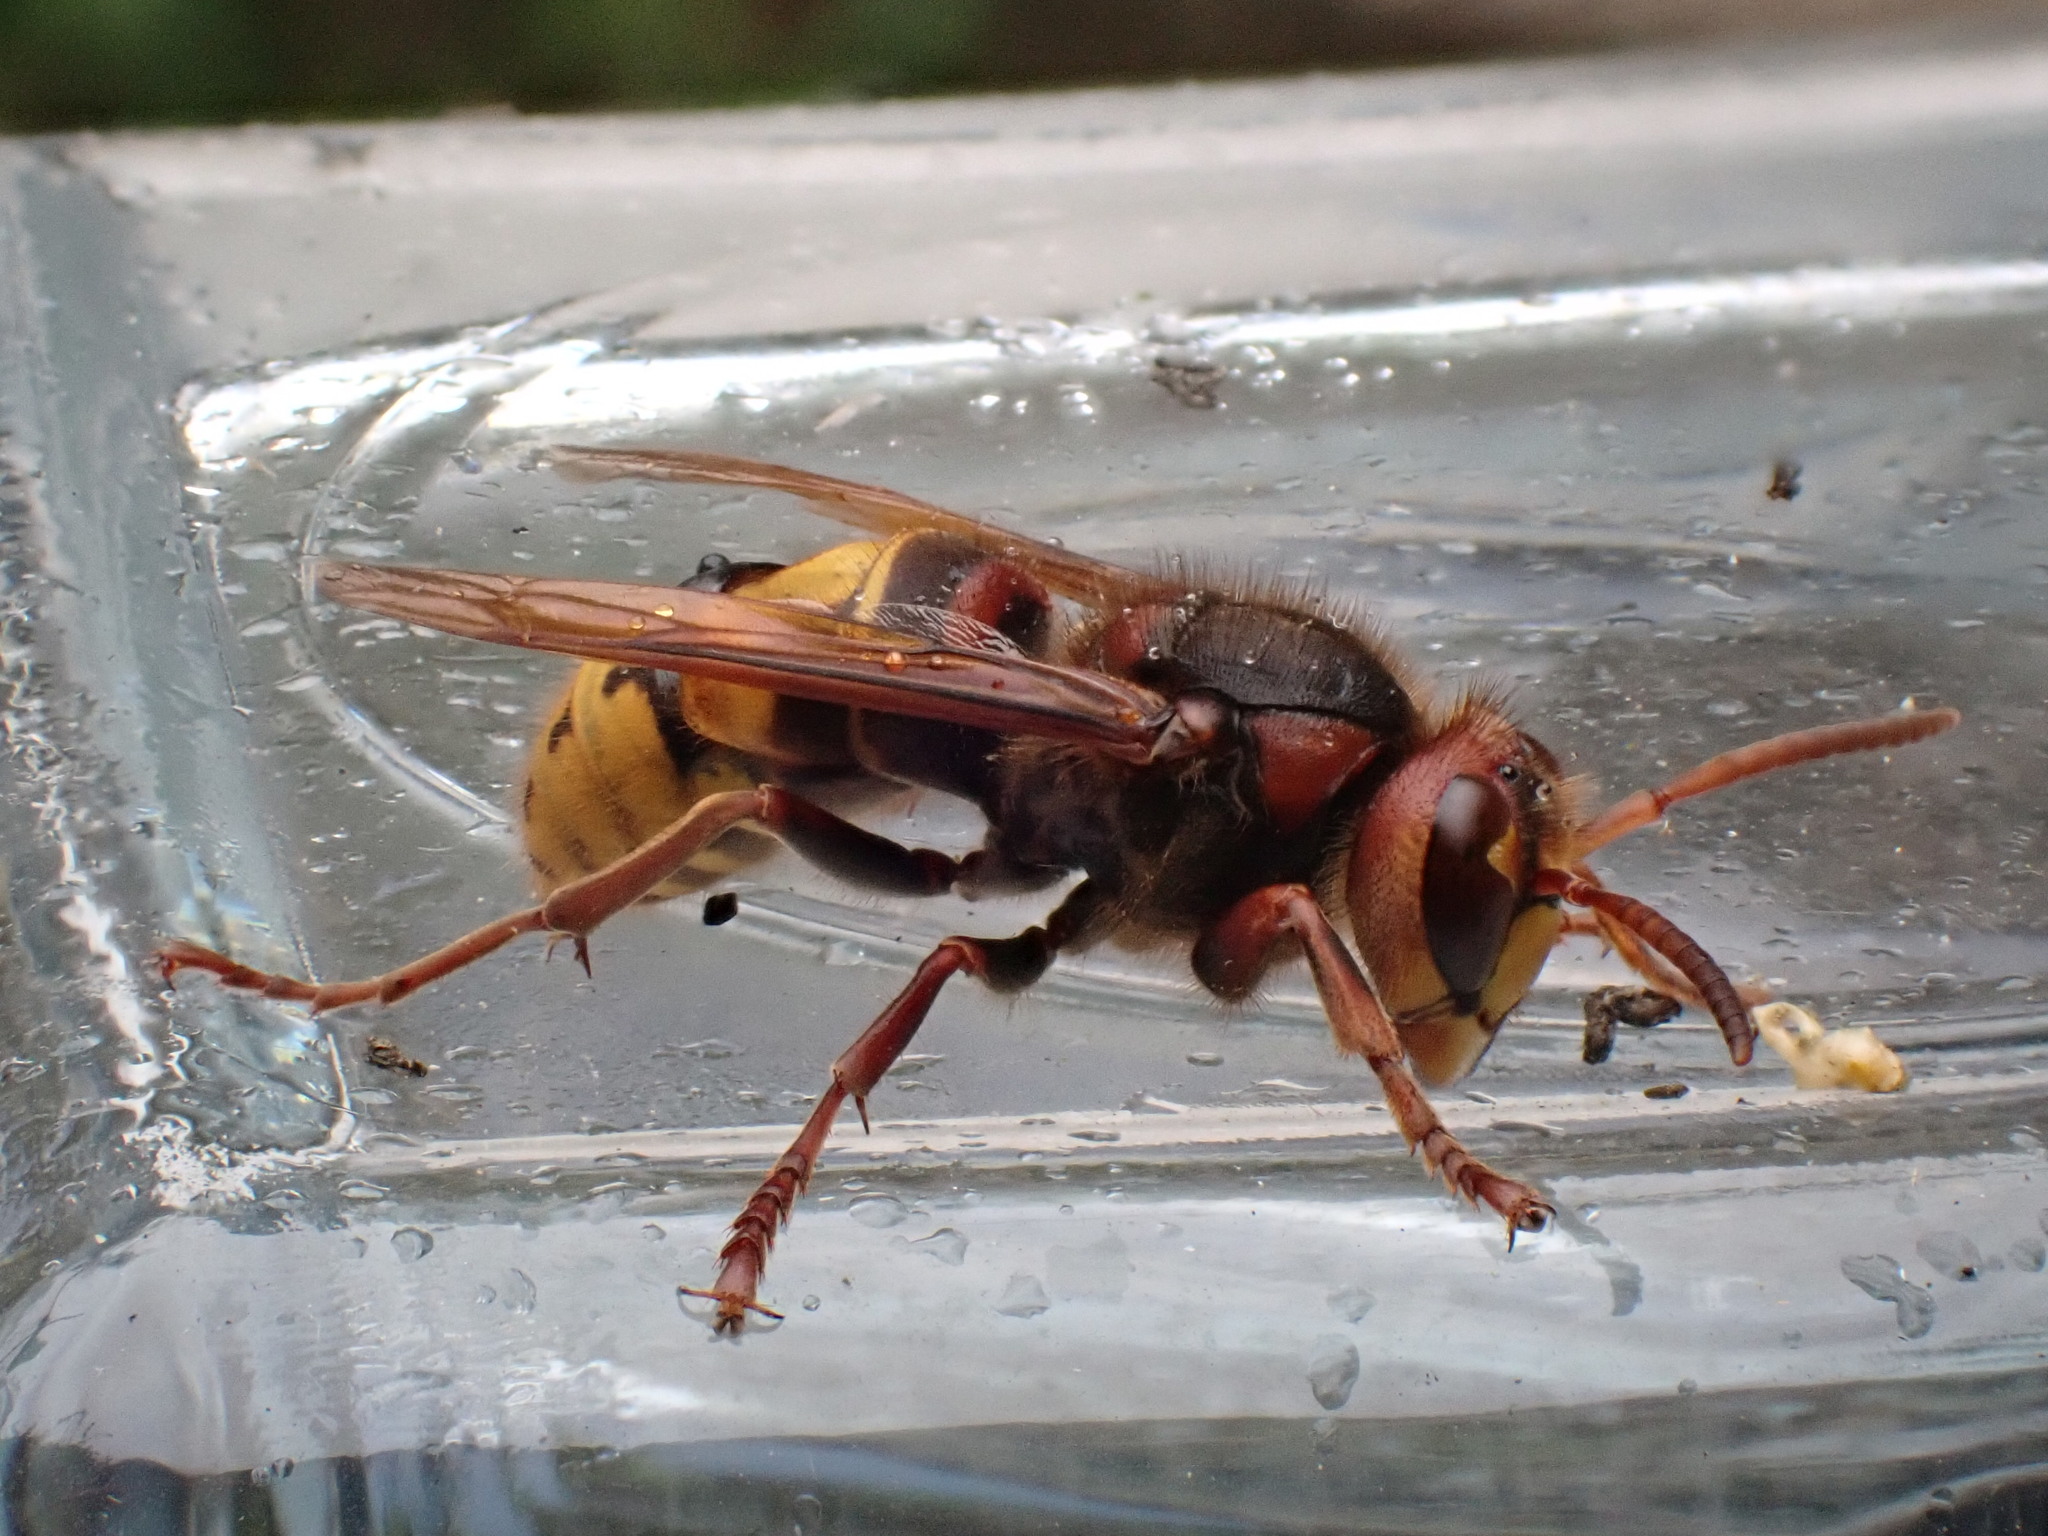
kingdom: Animalia
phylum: Arthropoda
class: Insecta
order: Hymenoptera
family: Vespidae
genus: Vespa
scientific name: Vespa crabro
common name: Hornet
